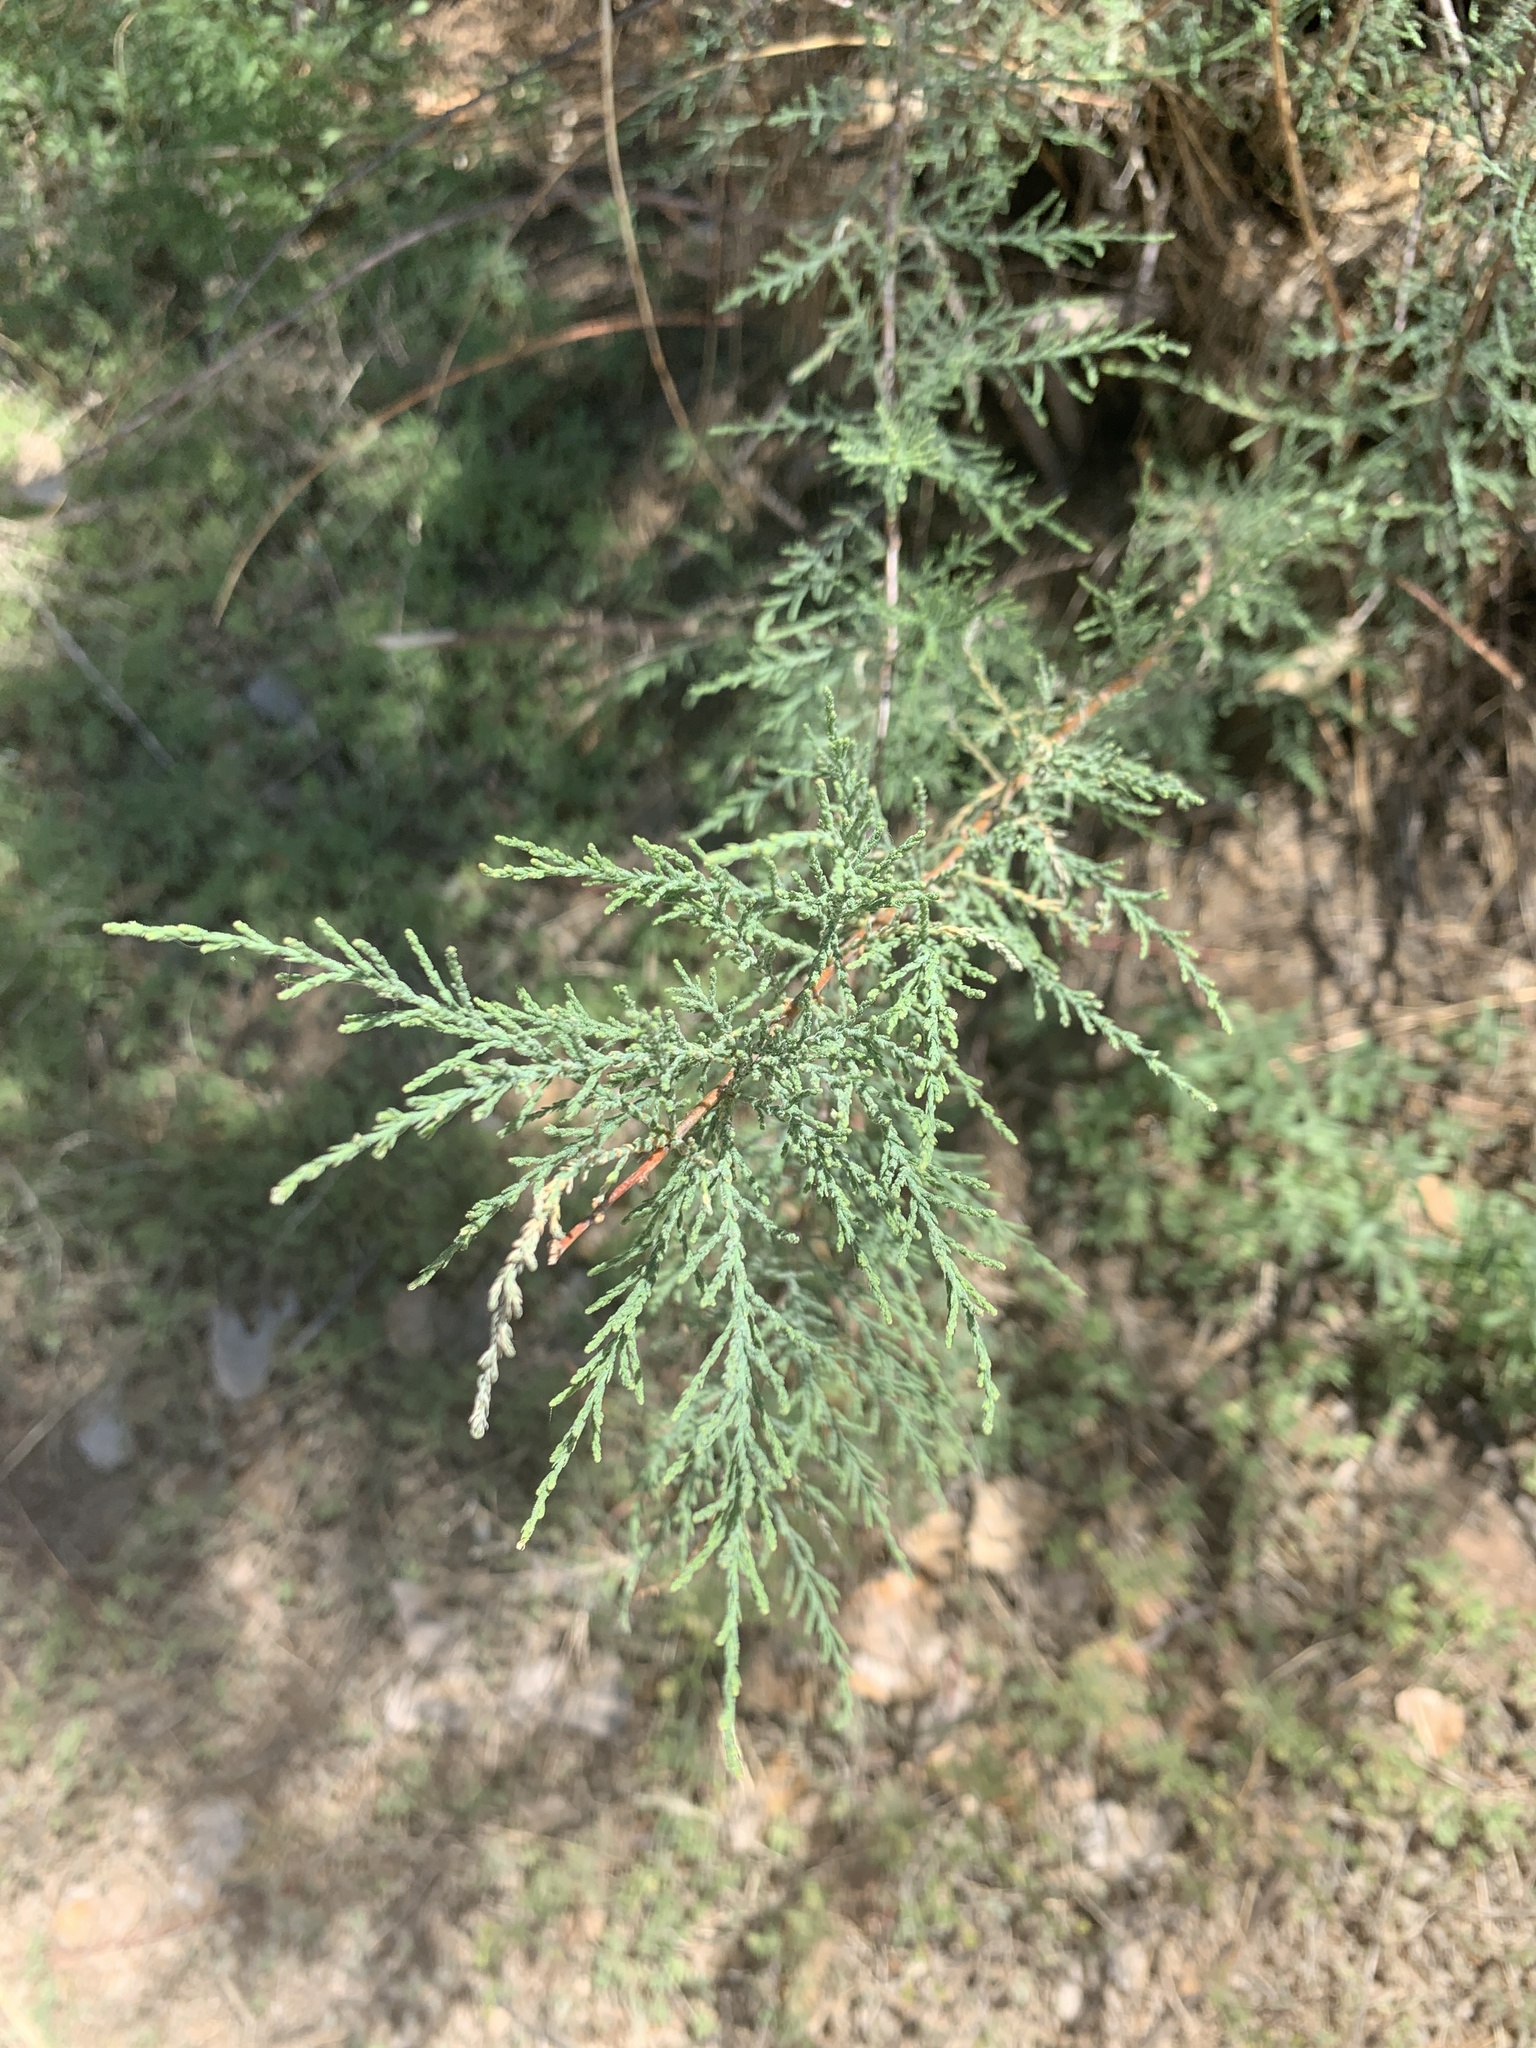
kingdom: Plantae
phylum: Tracheophyta
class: Magnoliopsida
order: Caryophyllales
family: Tamaricaceae
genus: Tamarix
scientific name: Tamarix
